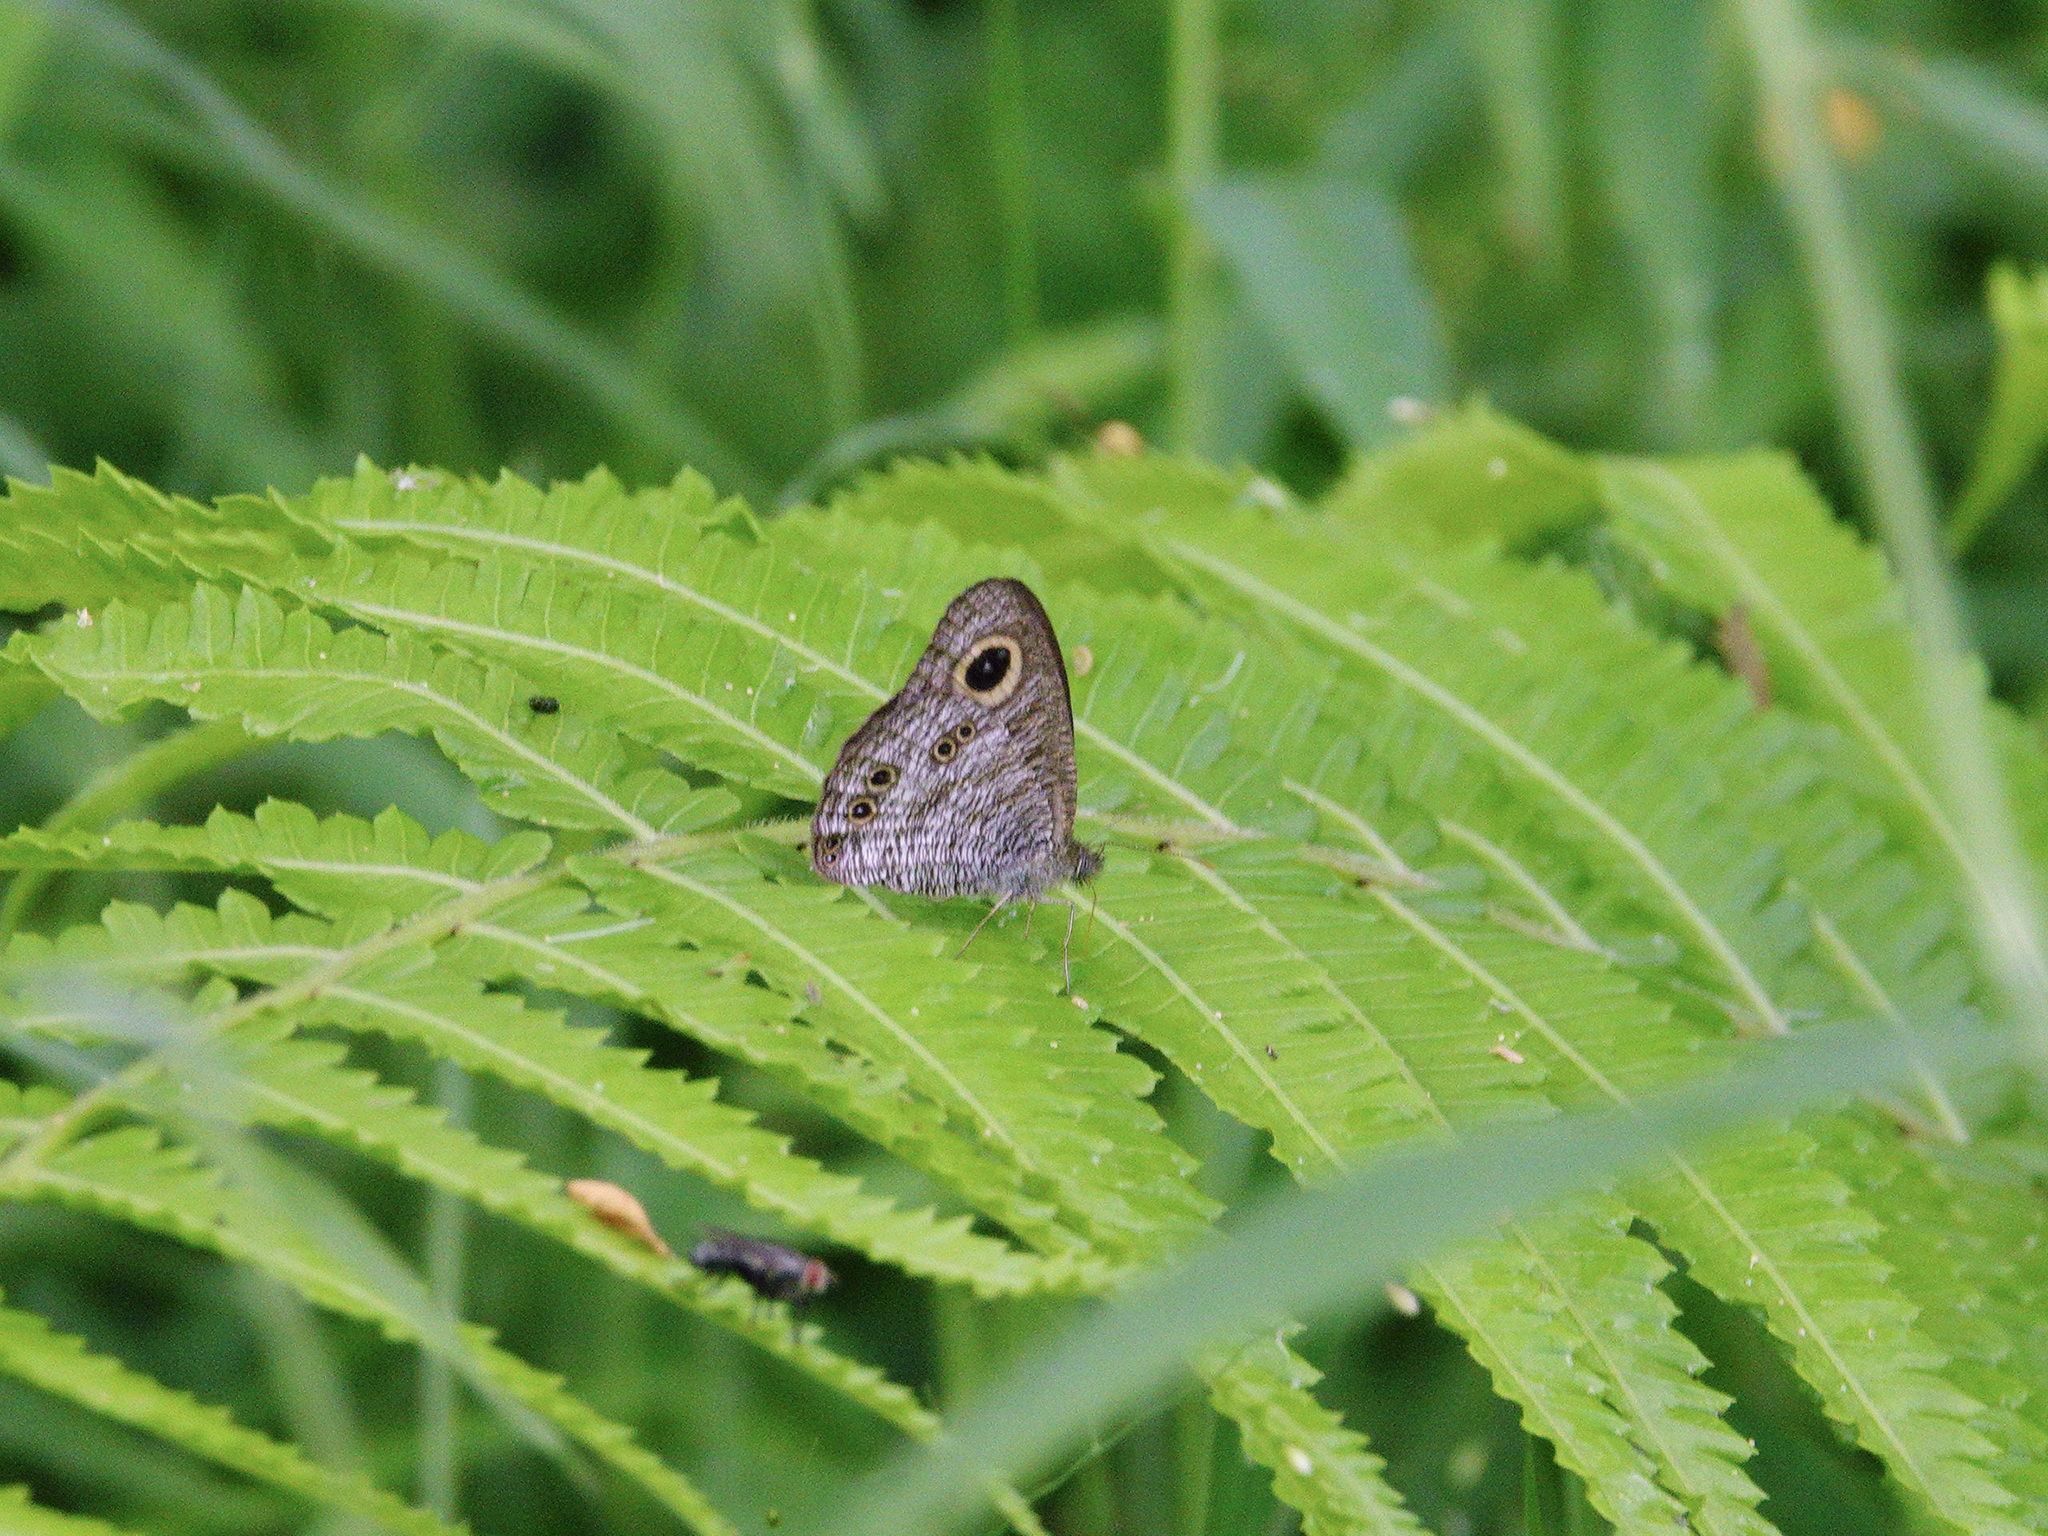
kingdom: Animalia
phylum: Arthropoda
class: Insecta
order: Lepidoptera
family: Nymphalidae
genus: Ypthima
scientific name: Ypthima baldus
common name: Common five-ring
